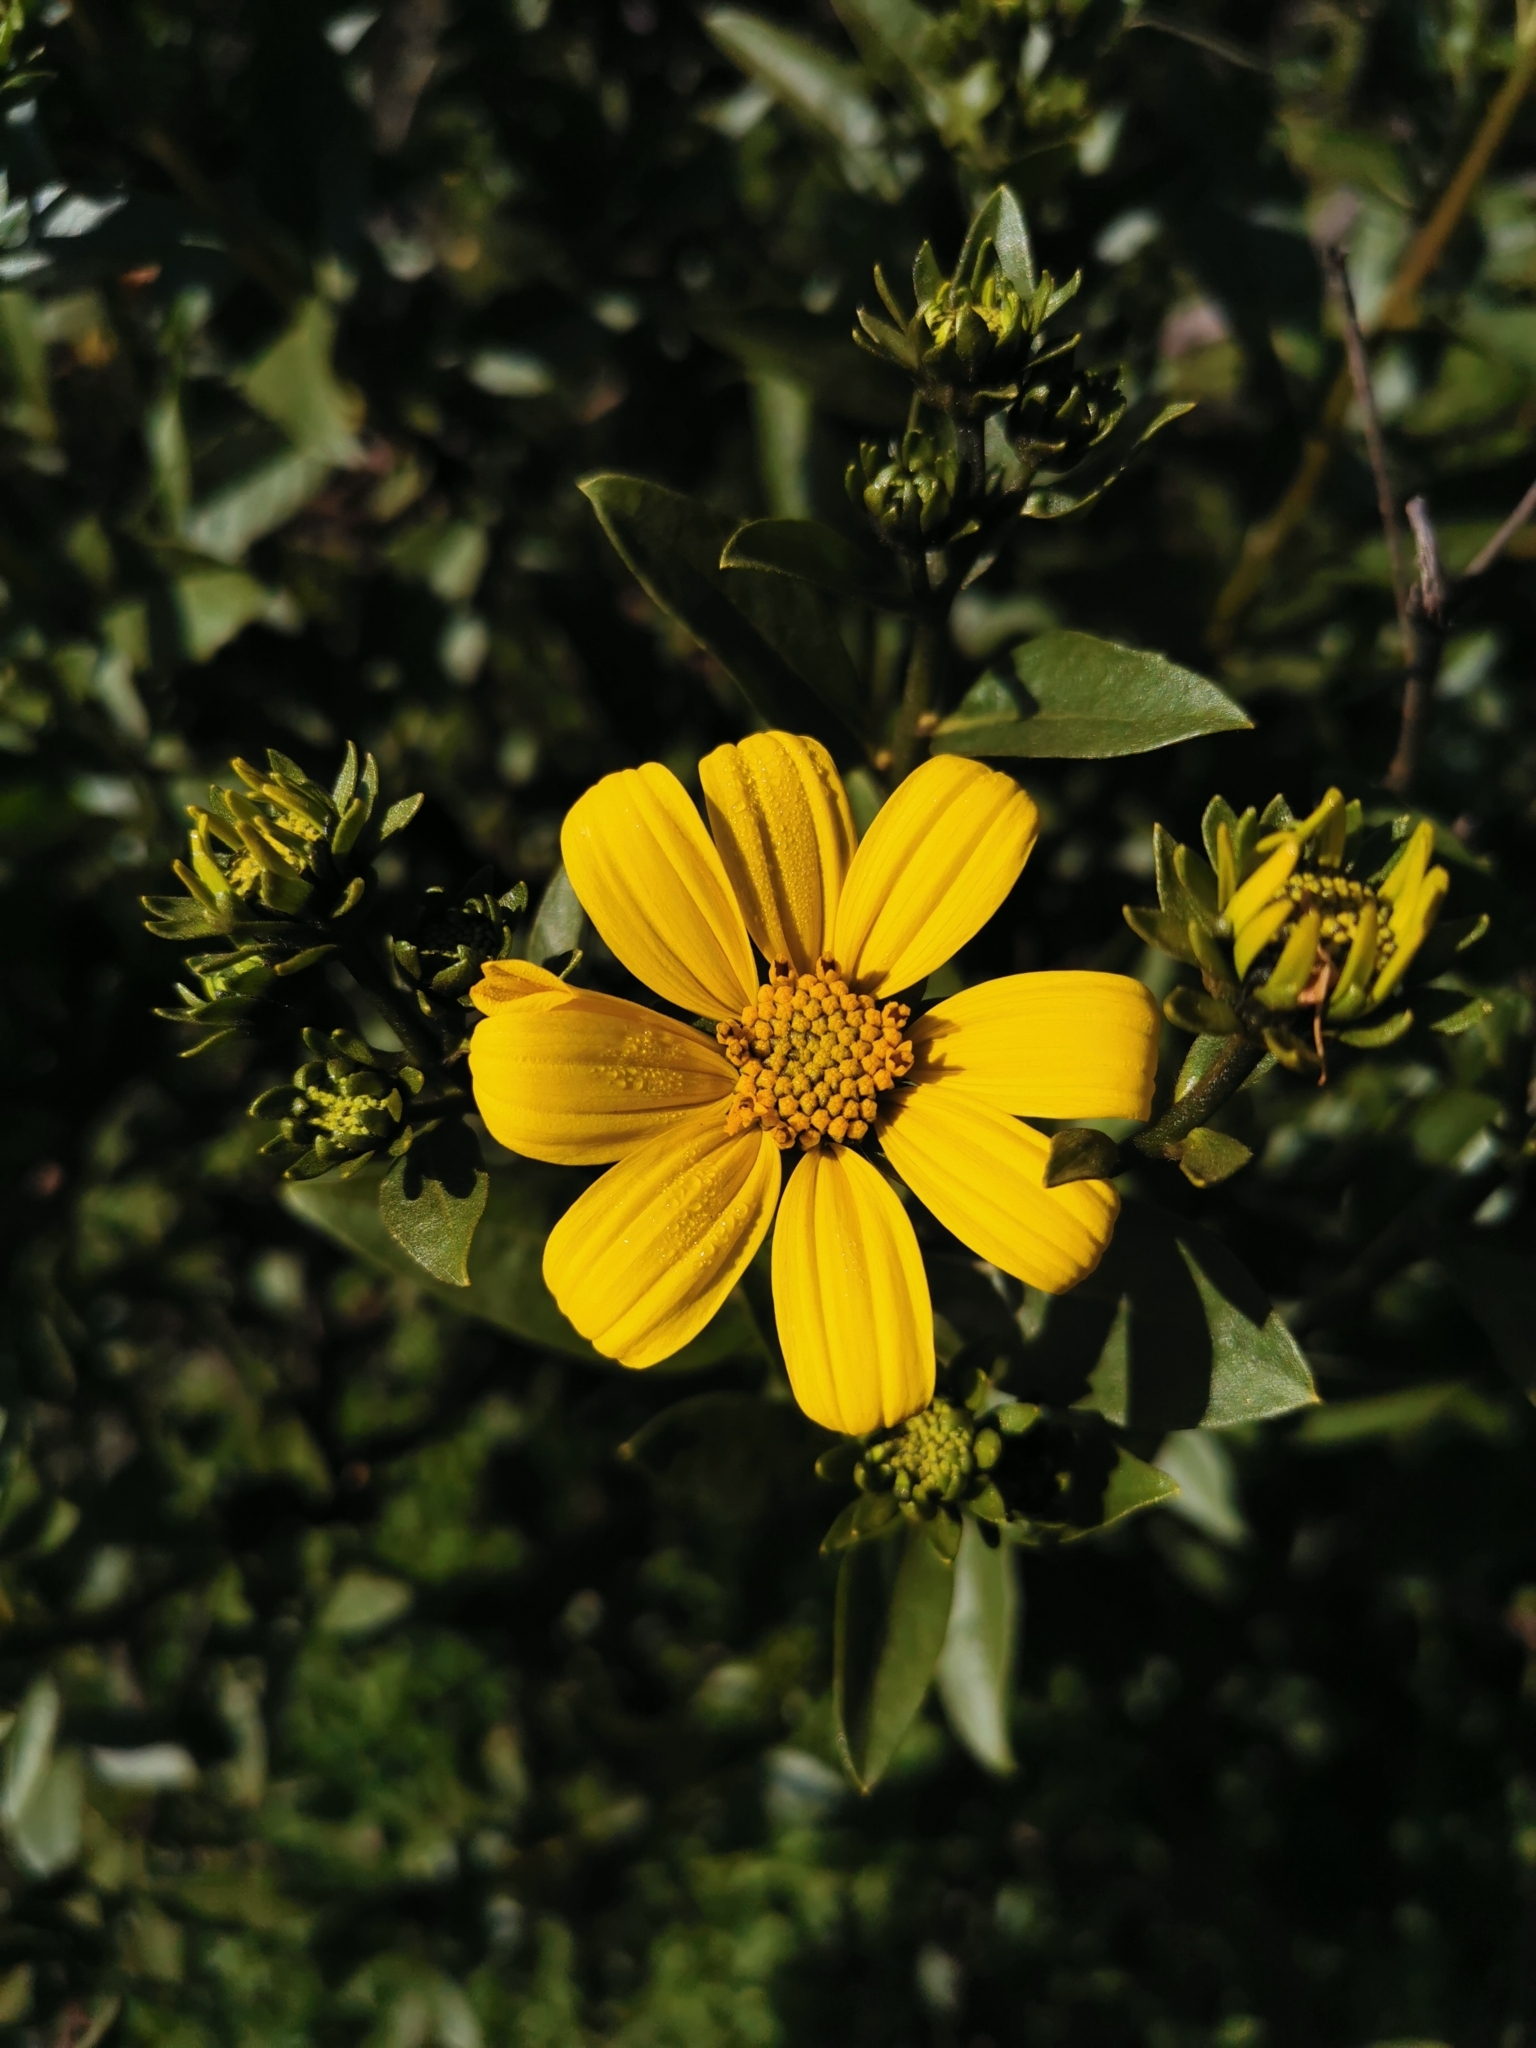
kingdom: Plantae
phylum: Tracheophyta
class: Magnoliopsida
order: Asterales
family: Asteraceae
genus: Flourensia
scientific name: Flourensia thurifera
